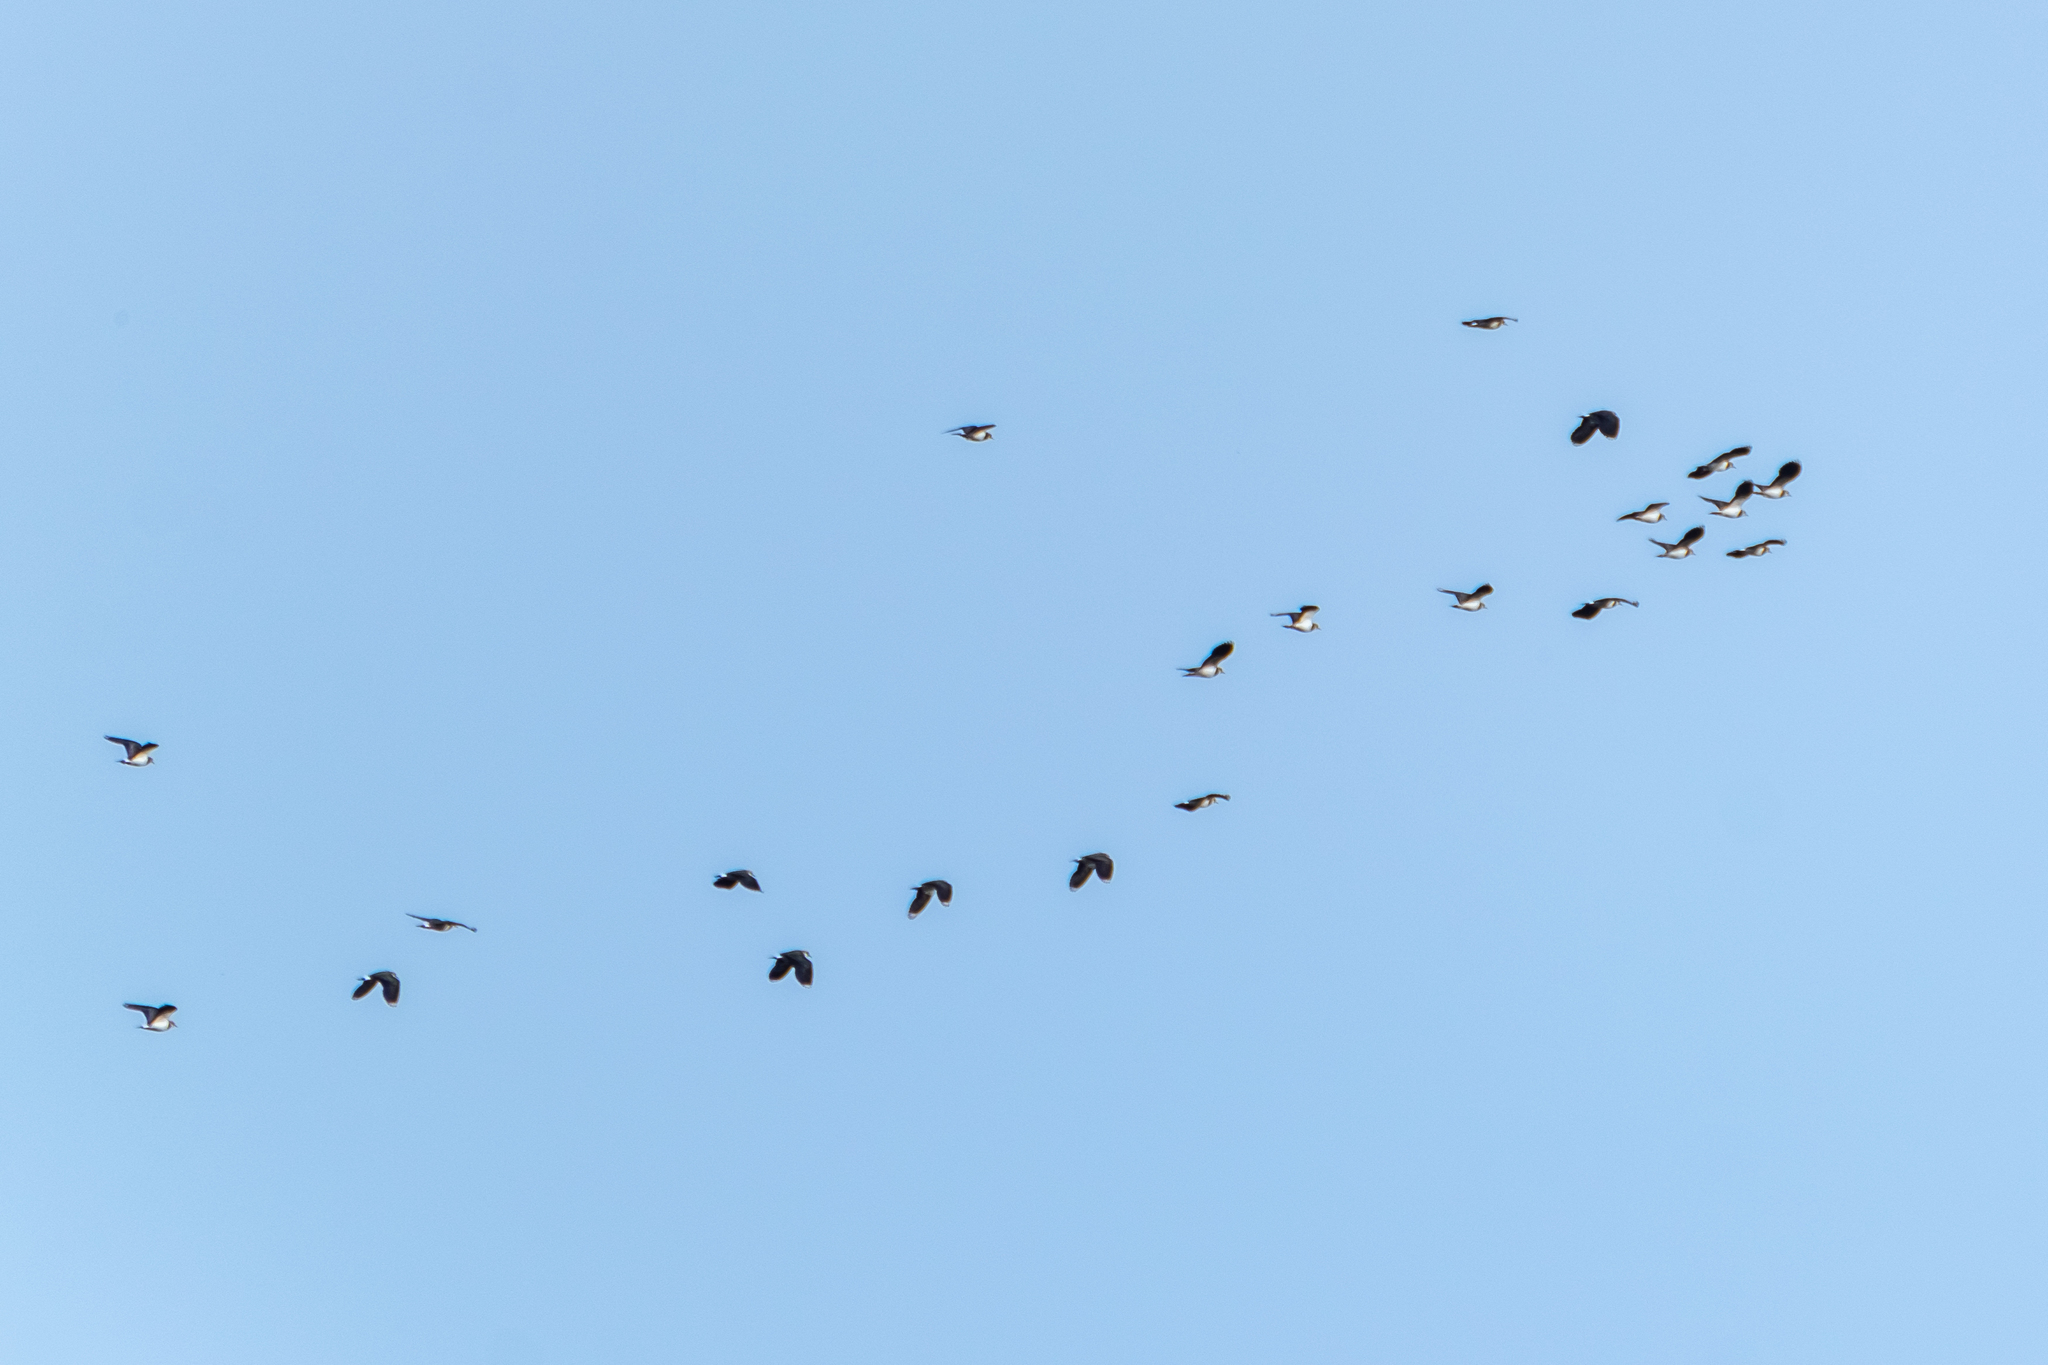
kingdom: Animalia
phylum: Chordata
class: Aves
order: Charadriiformes
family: Charadriidae
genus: Vanellus
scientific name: Vanellus vanellus
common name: Northern lapwing
